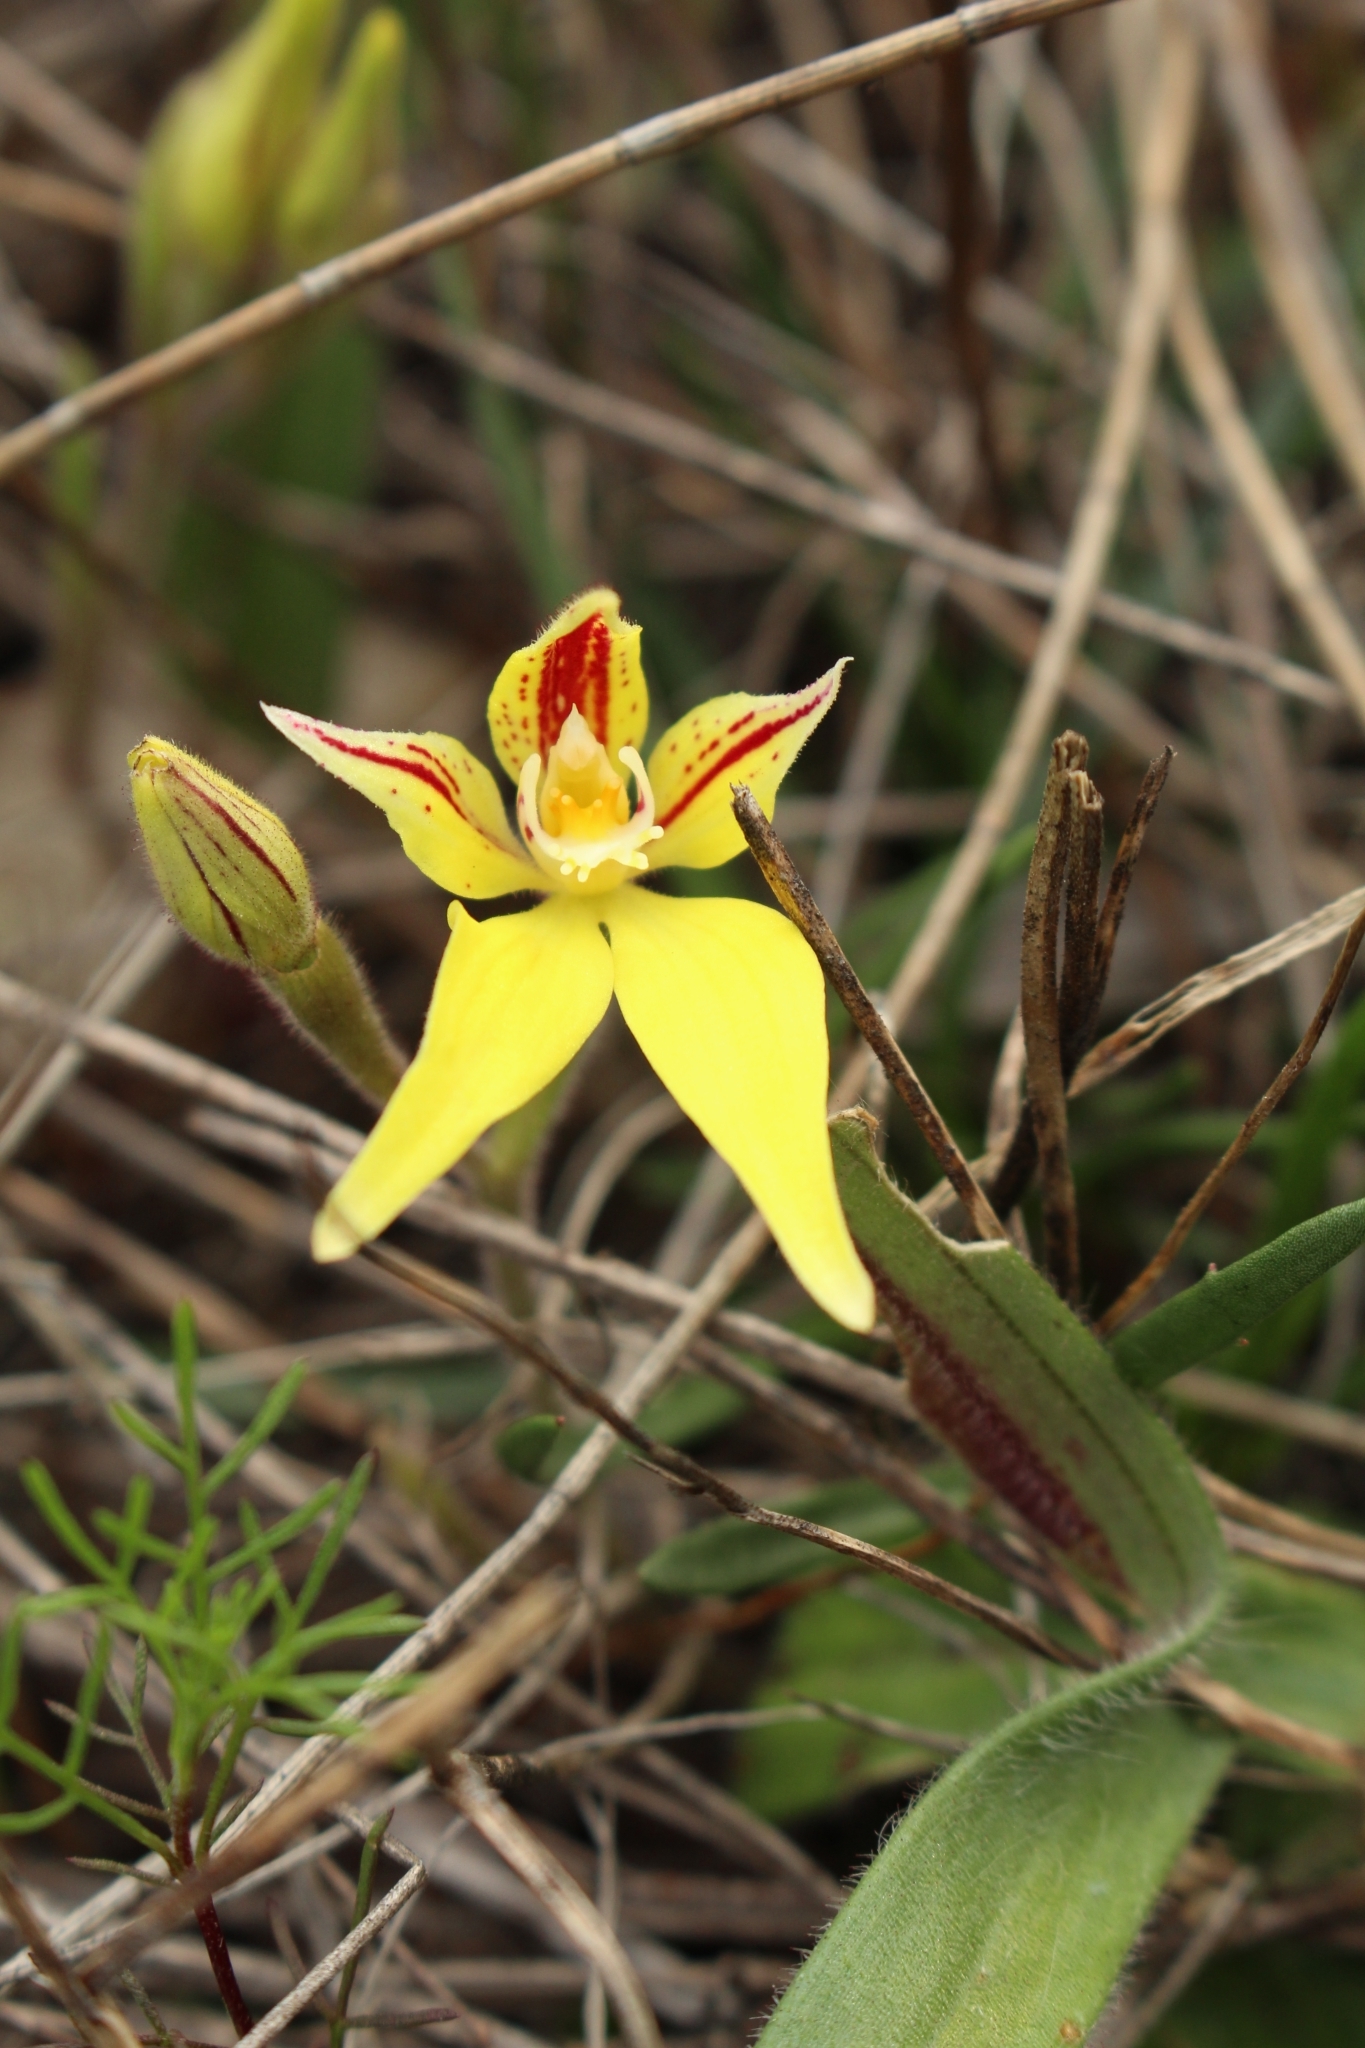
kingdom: Plantae
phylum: Tracheophyta
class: Liliopsida
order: Asparagales
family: Orchidaceae
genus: Caladenia
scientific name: Caladenia flava
